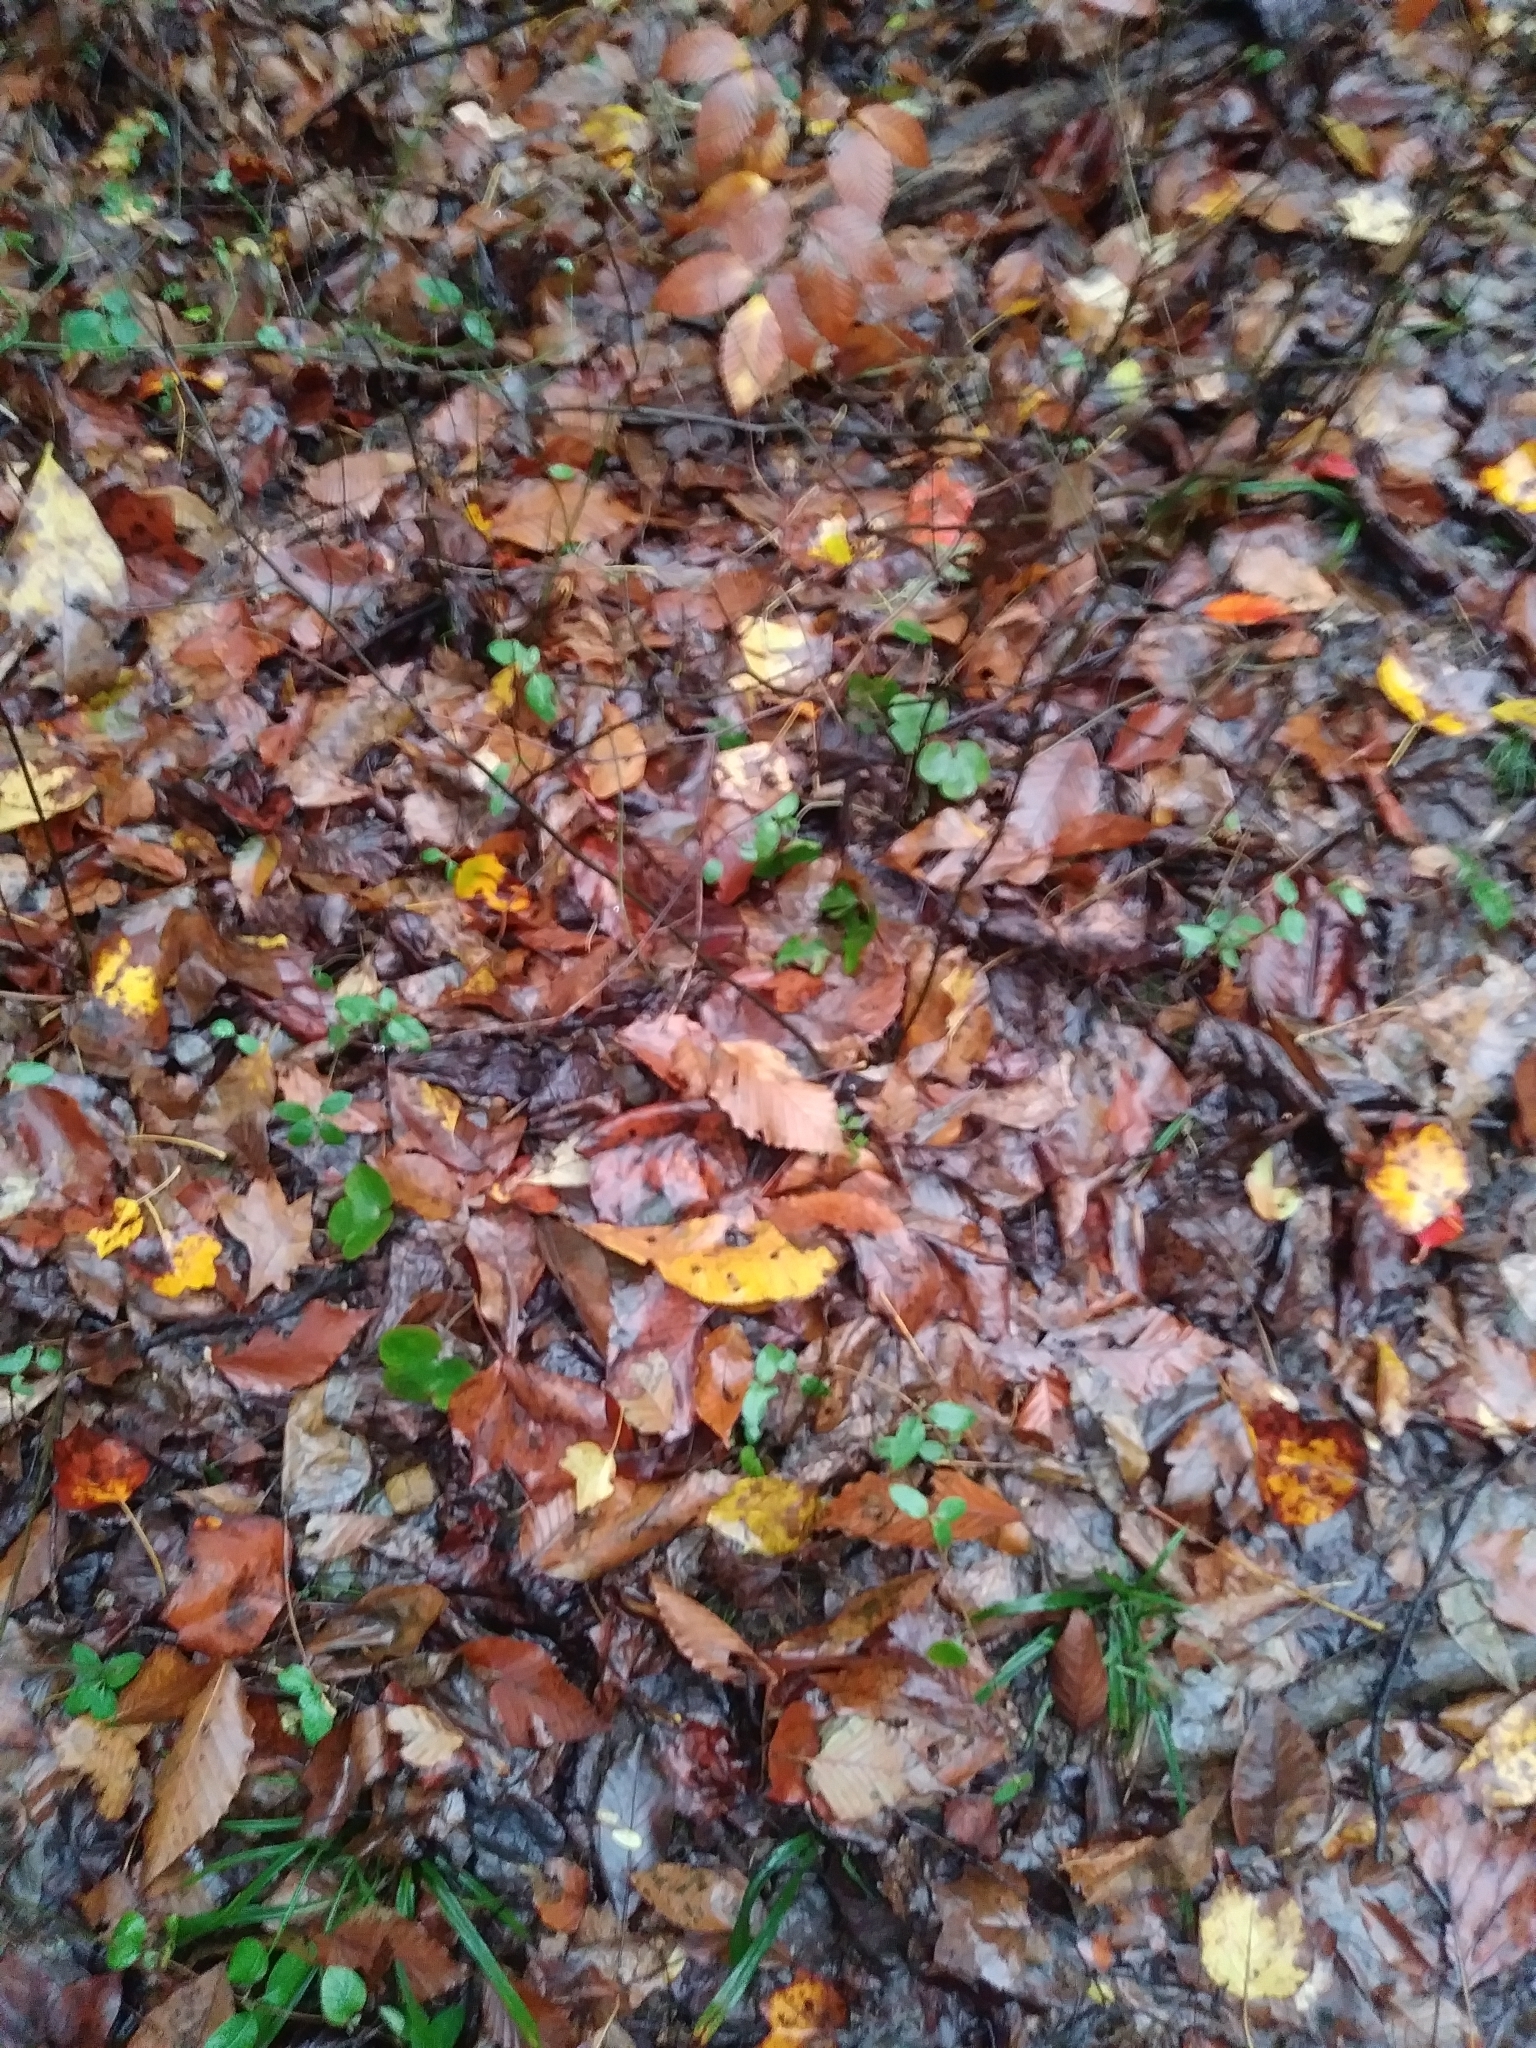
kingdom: Plantae
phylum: Tracheophyta
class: Magnoliopsida
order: Ranunculales
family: Ranunculaceae
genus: Hepatica
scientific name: Hepatica americana
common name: American hepatica
